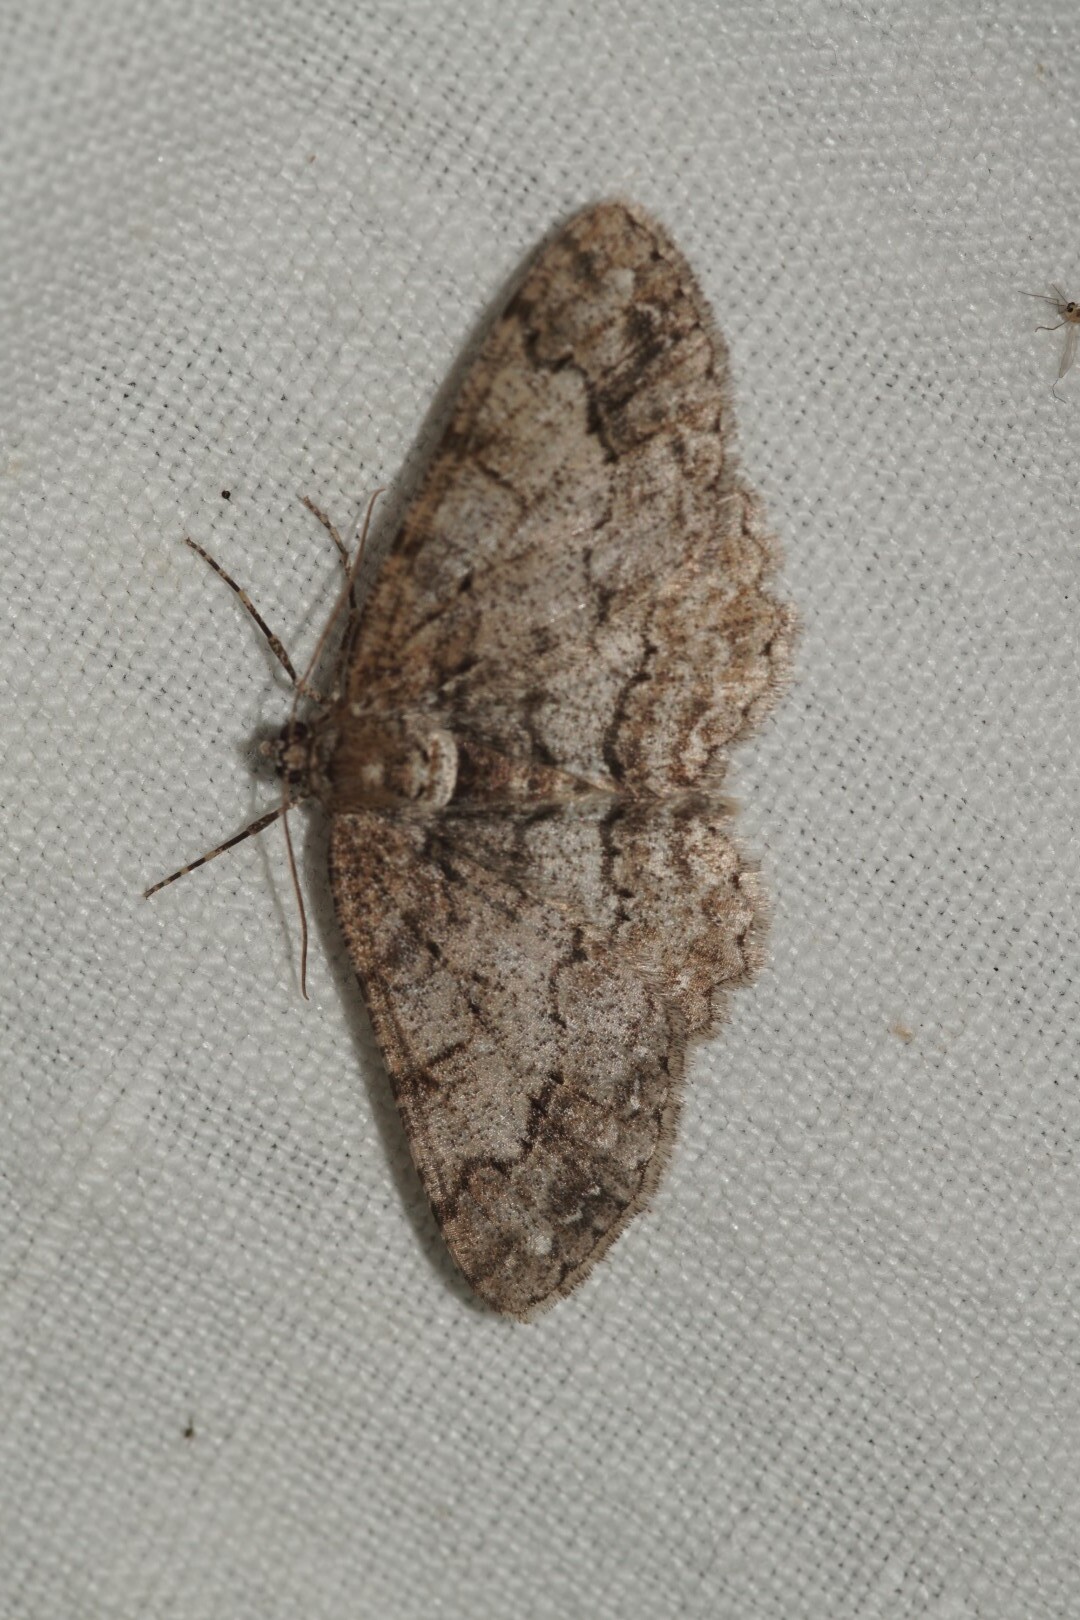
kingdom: Animalia
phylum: Arthropoda
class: Insecta
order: Lepidoptera
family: Geometridae
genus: Paradarisa
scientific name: Paradarisa consonaria
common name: Square spot
